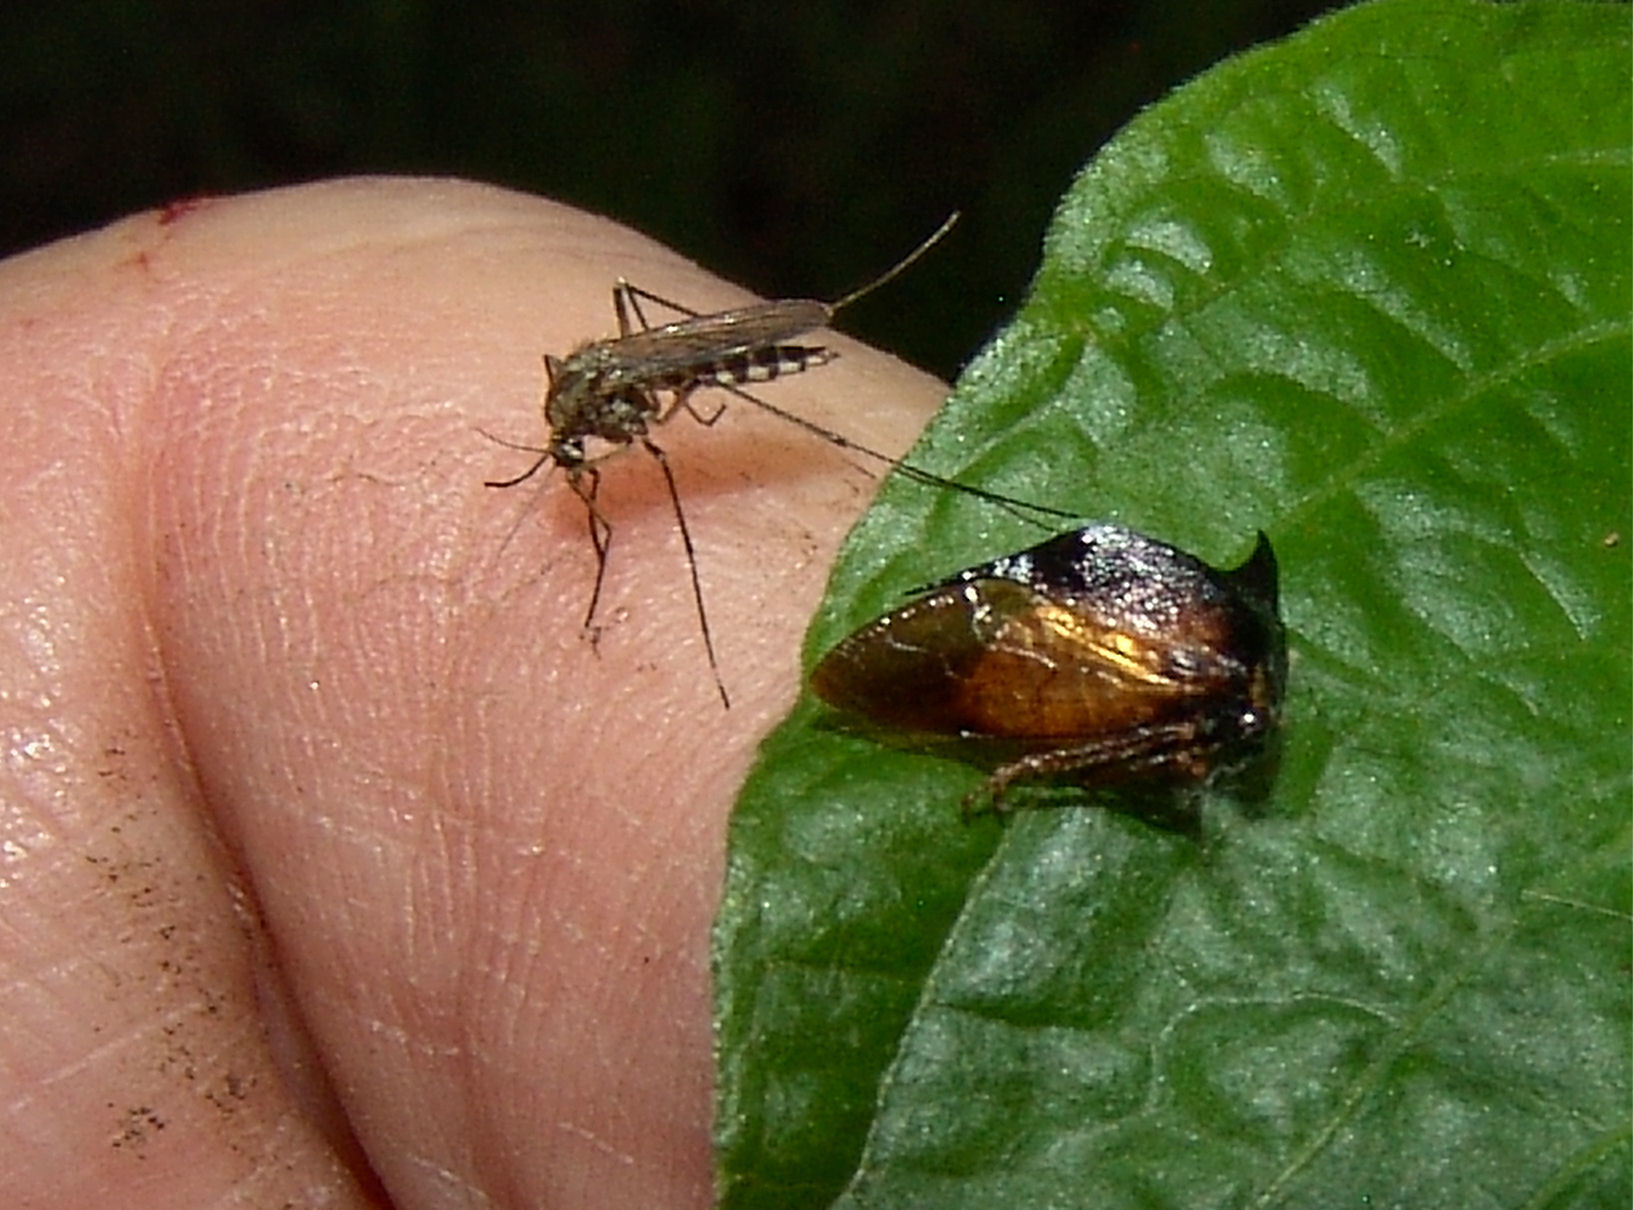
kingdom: Animalia
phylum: Arthropoda
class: Insecta
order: Diptera
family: Culicidae
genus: Aedes
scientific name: Aedes sticticus
